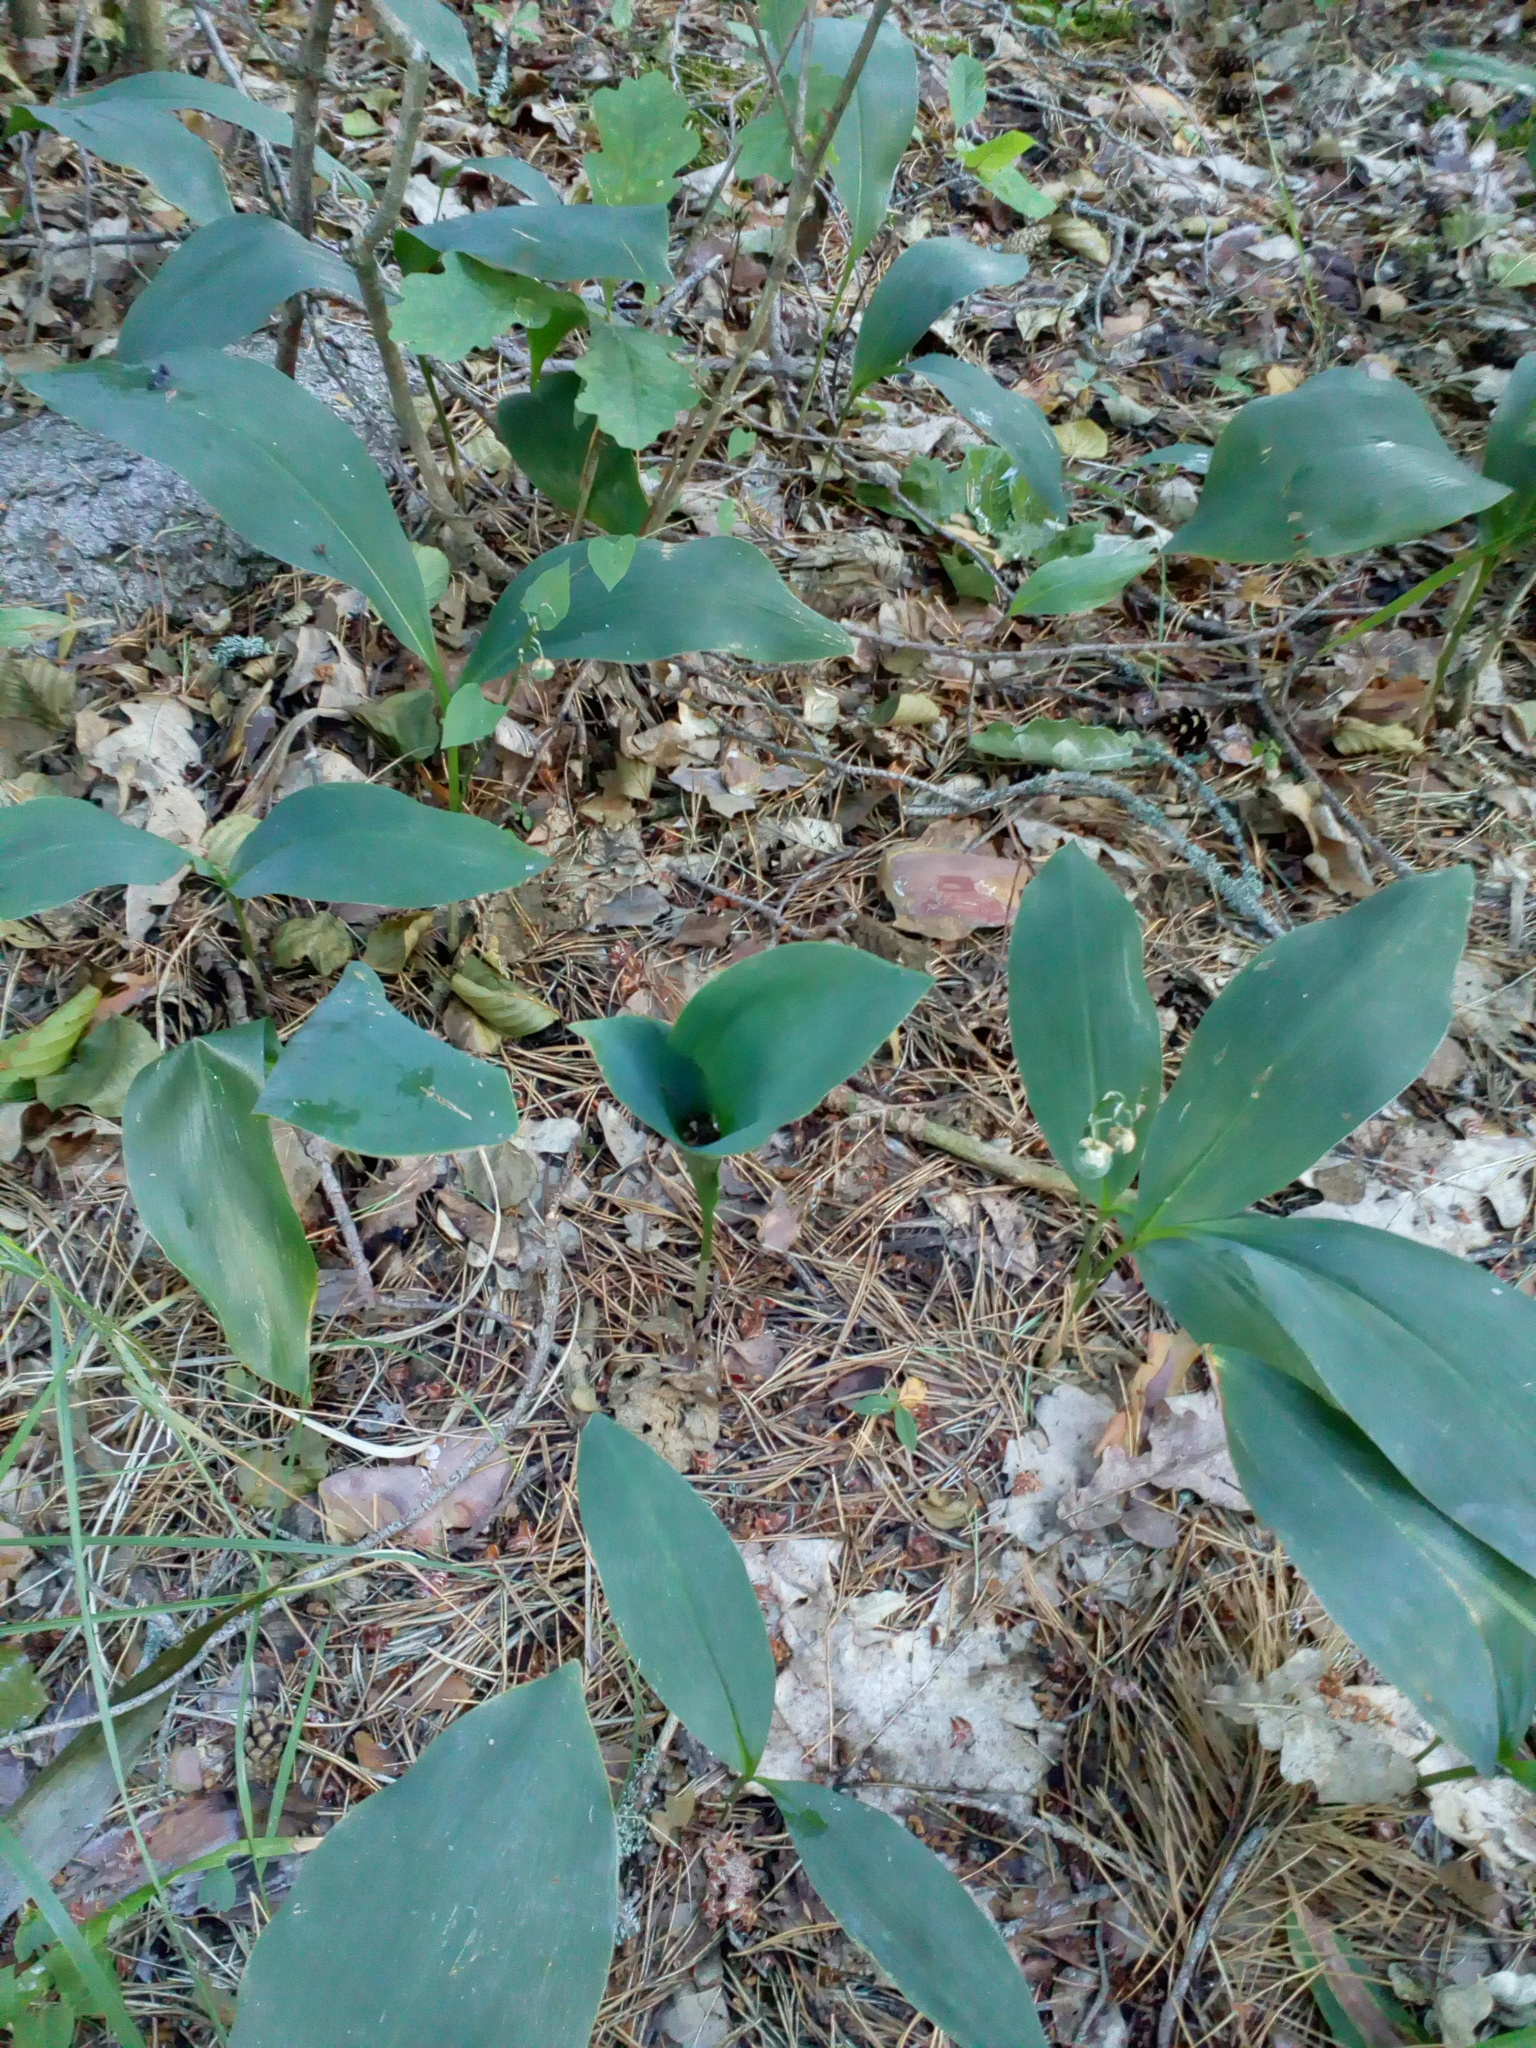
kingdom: Plantae
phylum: Tracheophyta
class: Liliopsida
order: Asparagales
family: Asparagaceae
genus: Convallaria
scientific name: Convallaria majalis
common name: Lily-of-the-valley
